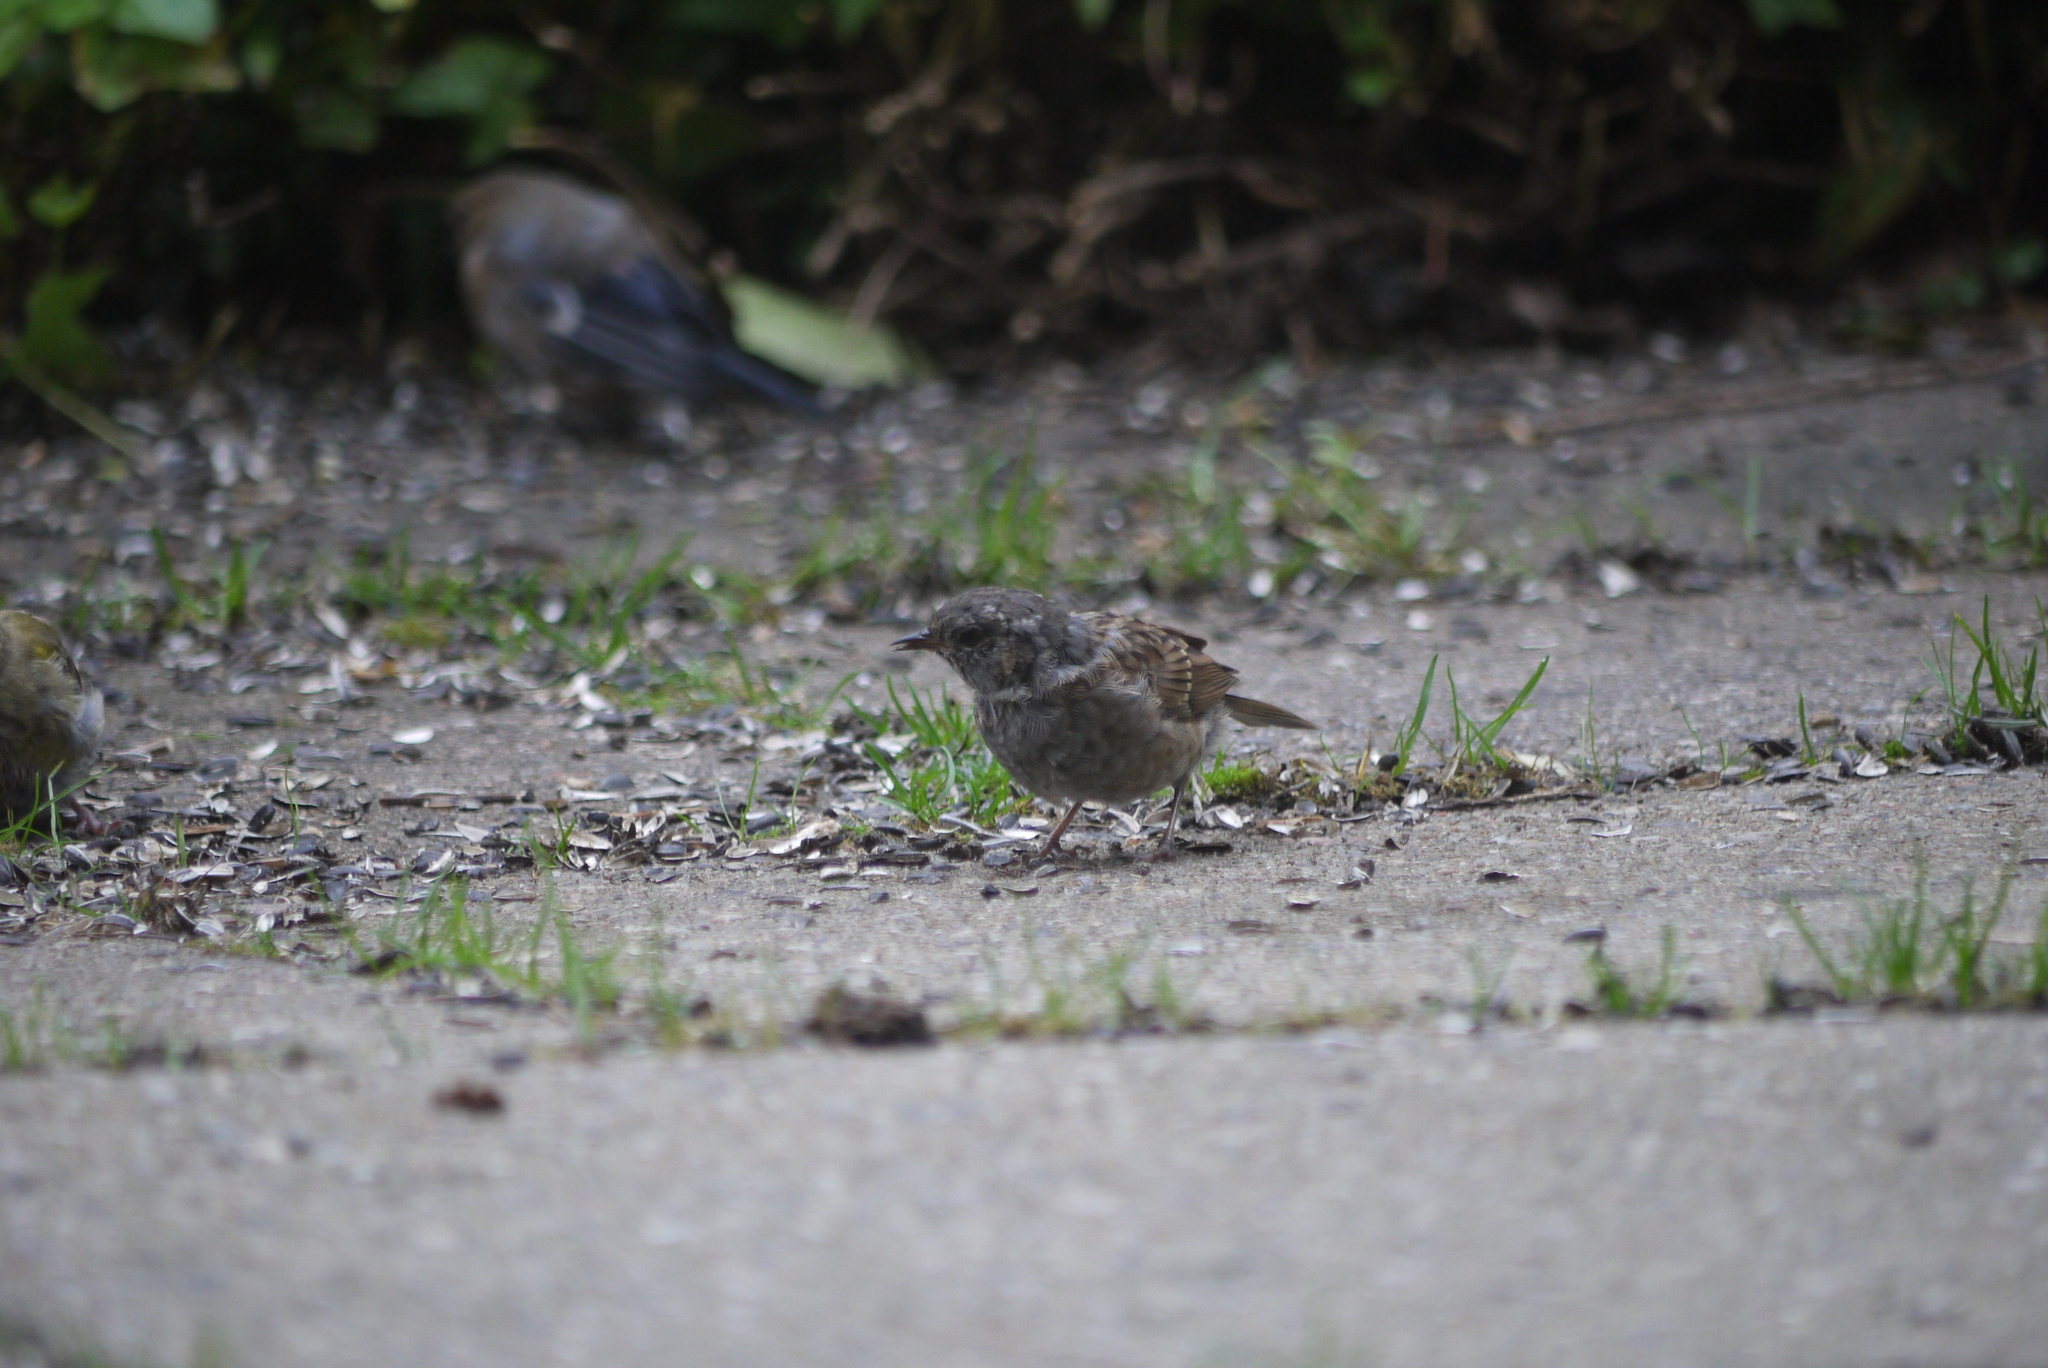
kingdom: Animalia
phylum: Chordata
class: Aves
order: Passeriformes
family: Prunellidae
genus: Prunella
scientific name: Prunella modularis
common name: Dunnock
